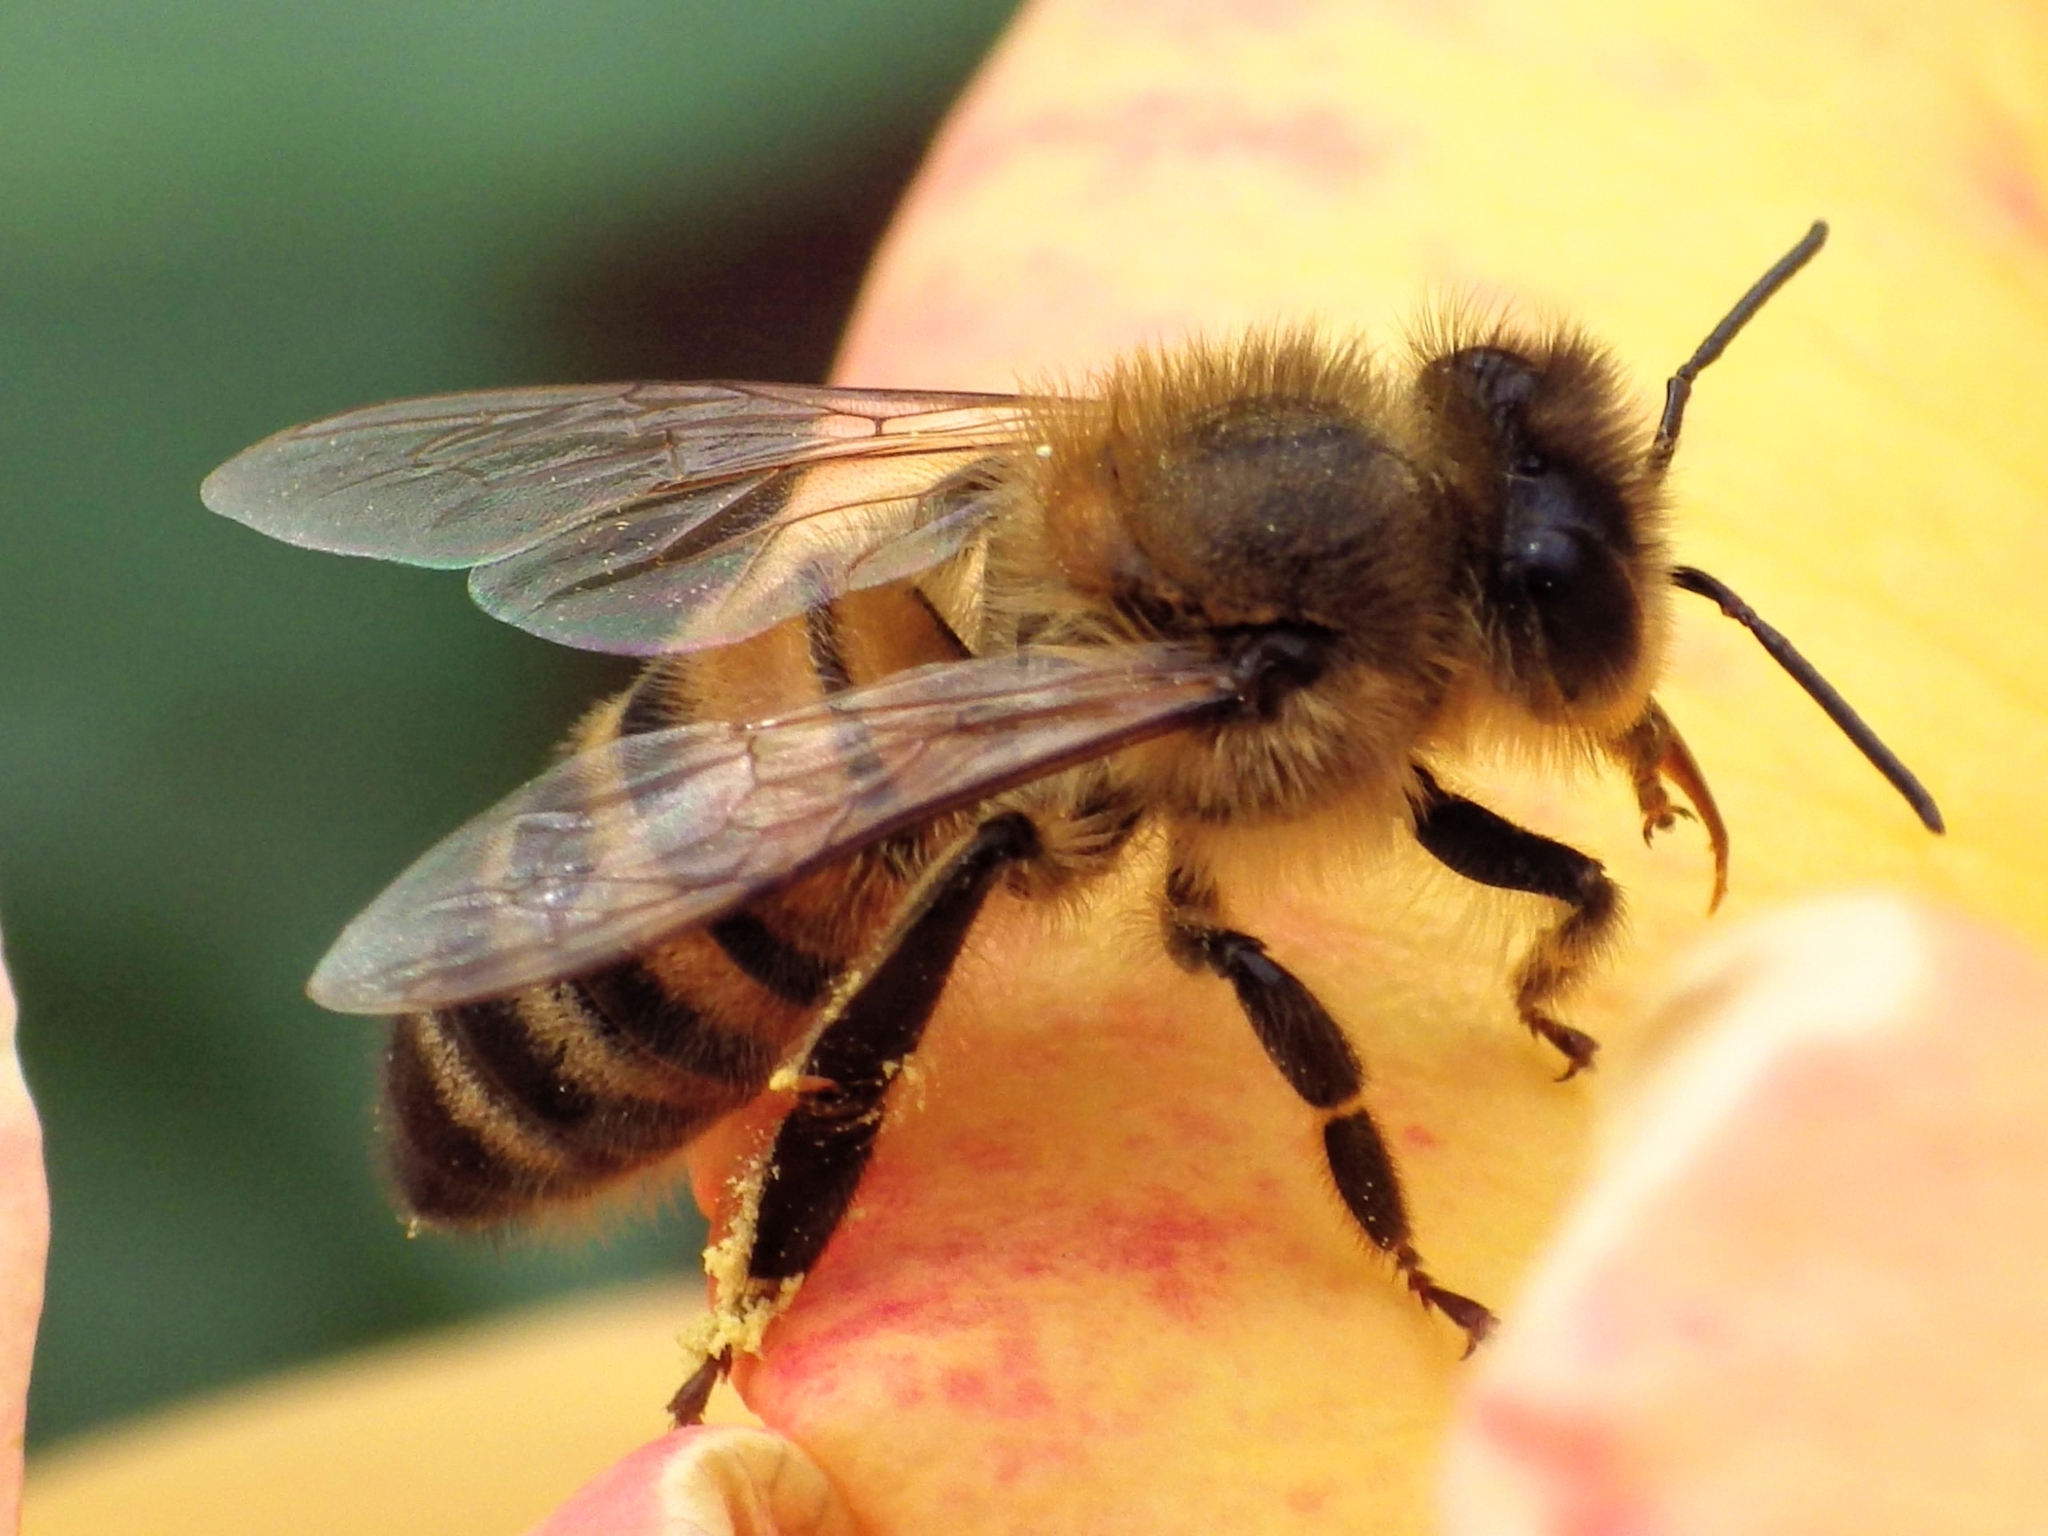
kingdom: Animalia
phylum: Arthropoda
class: Insecta
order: Hymenoptera
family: Apidae
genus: Apis
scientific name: Apis mellifera
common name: Honey bee
